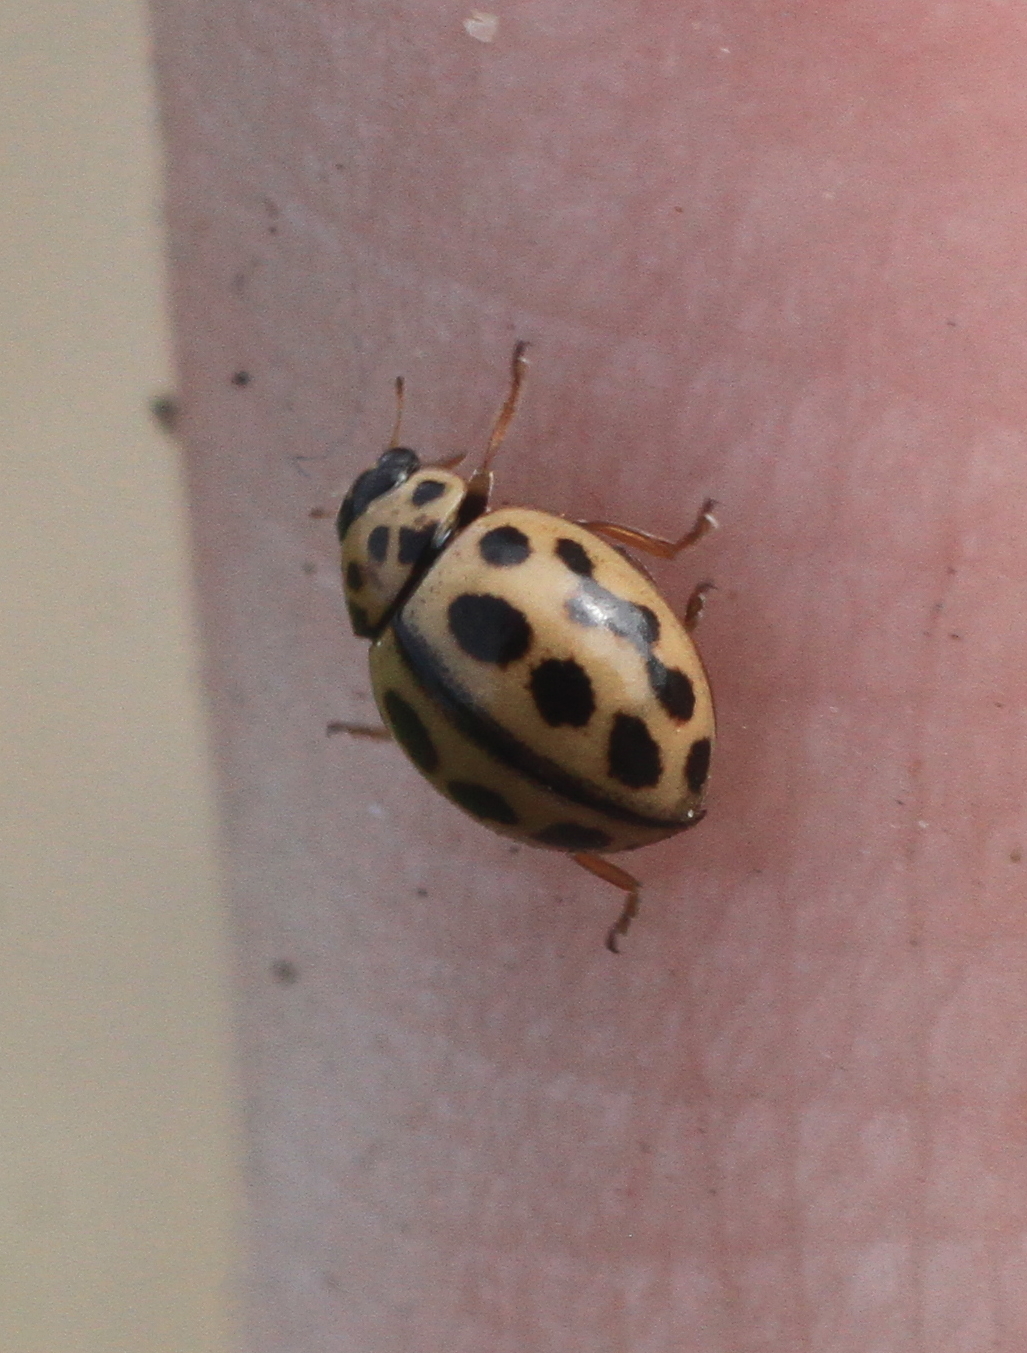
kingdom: Animalia
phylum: Arthropoda
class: Insecta
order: Coleoptera
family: Coccinellidae
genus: Tytthaspis
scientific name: Tytthaspis sedecimpunctata
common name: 16-spot ladybird
